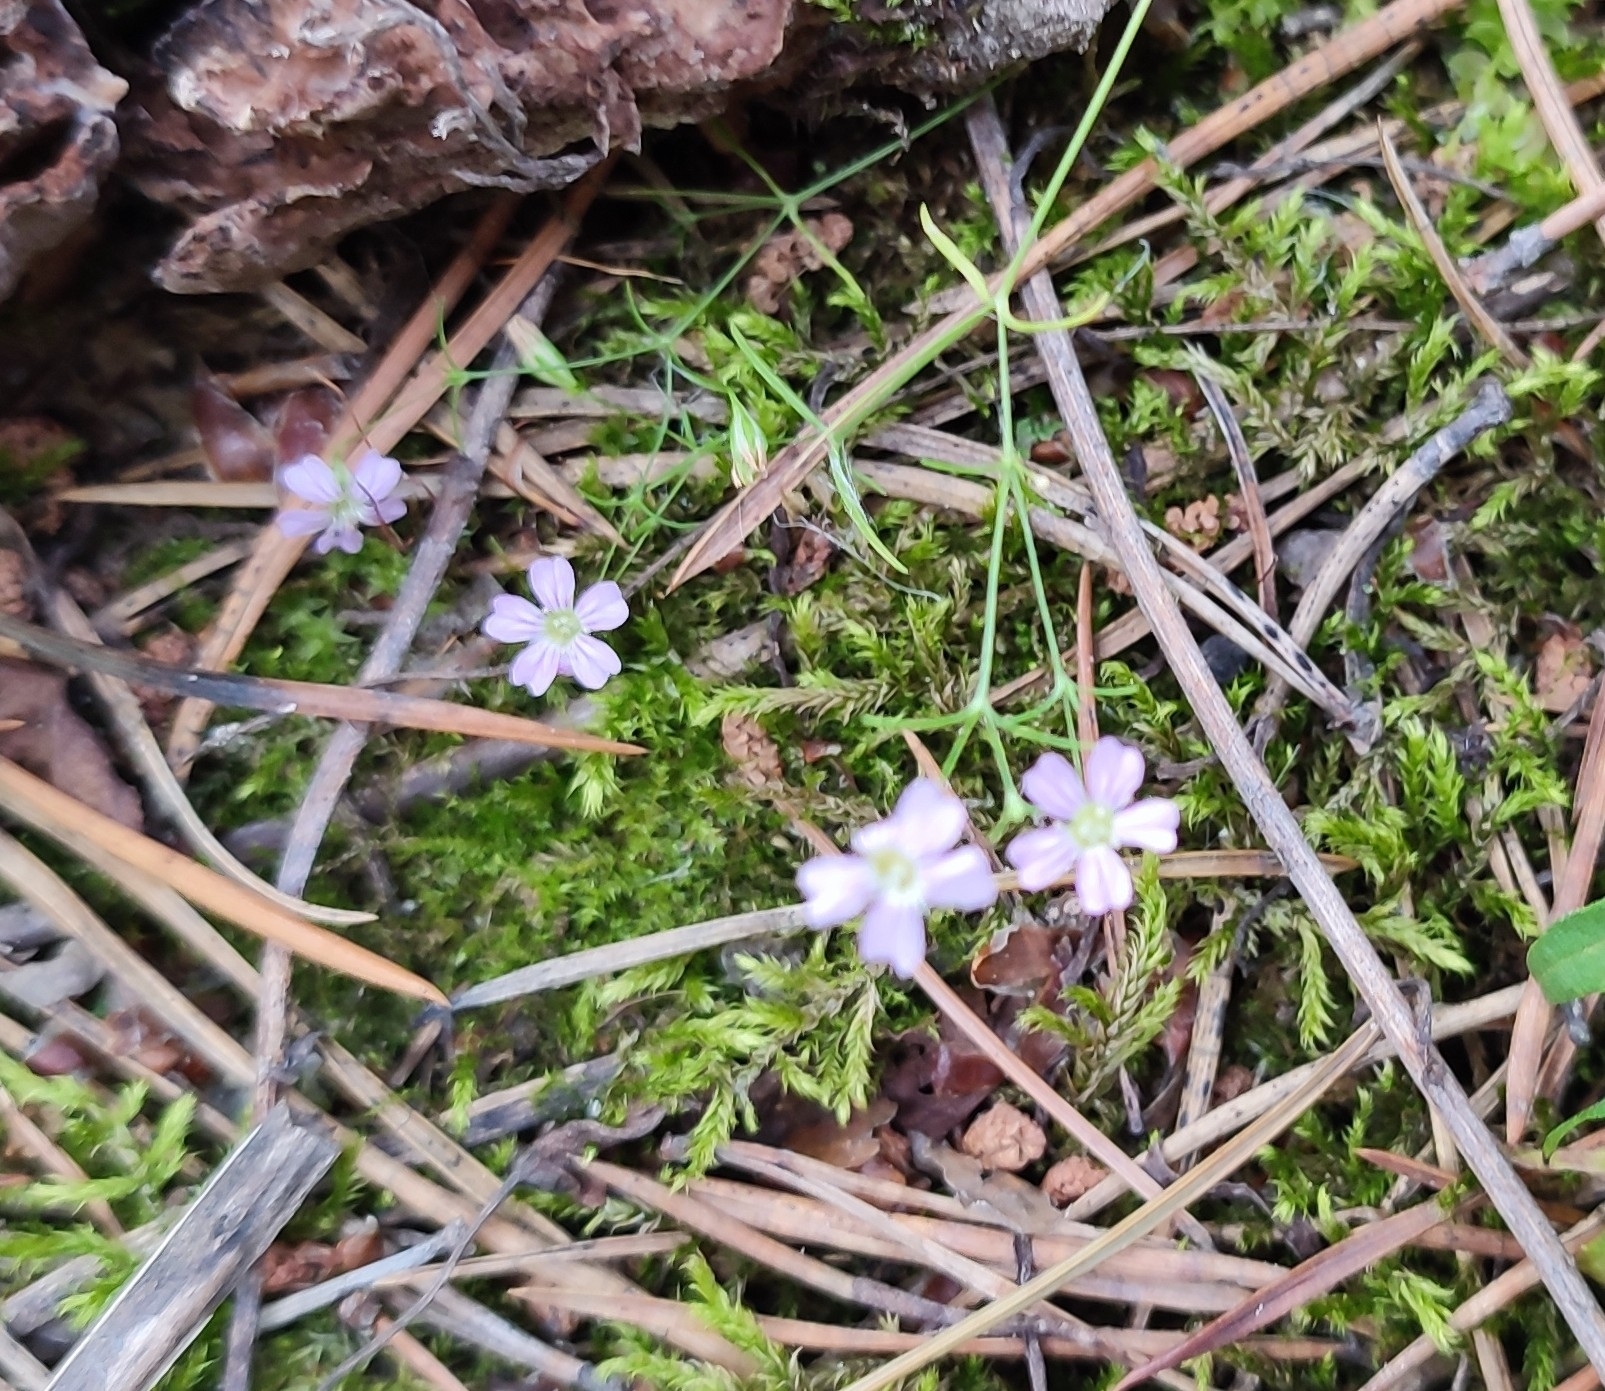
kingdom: Plantae
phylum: Tracheophyta
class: Magnoliopsida
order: Caryophyllales
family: Caryophyllaceae
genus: Psammophiliella
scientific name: Psammophiliella muralis
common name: Cushion baby's-breath
